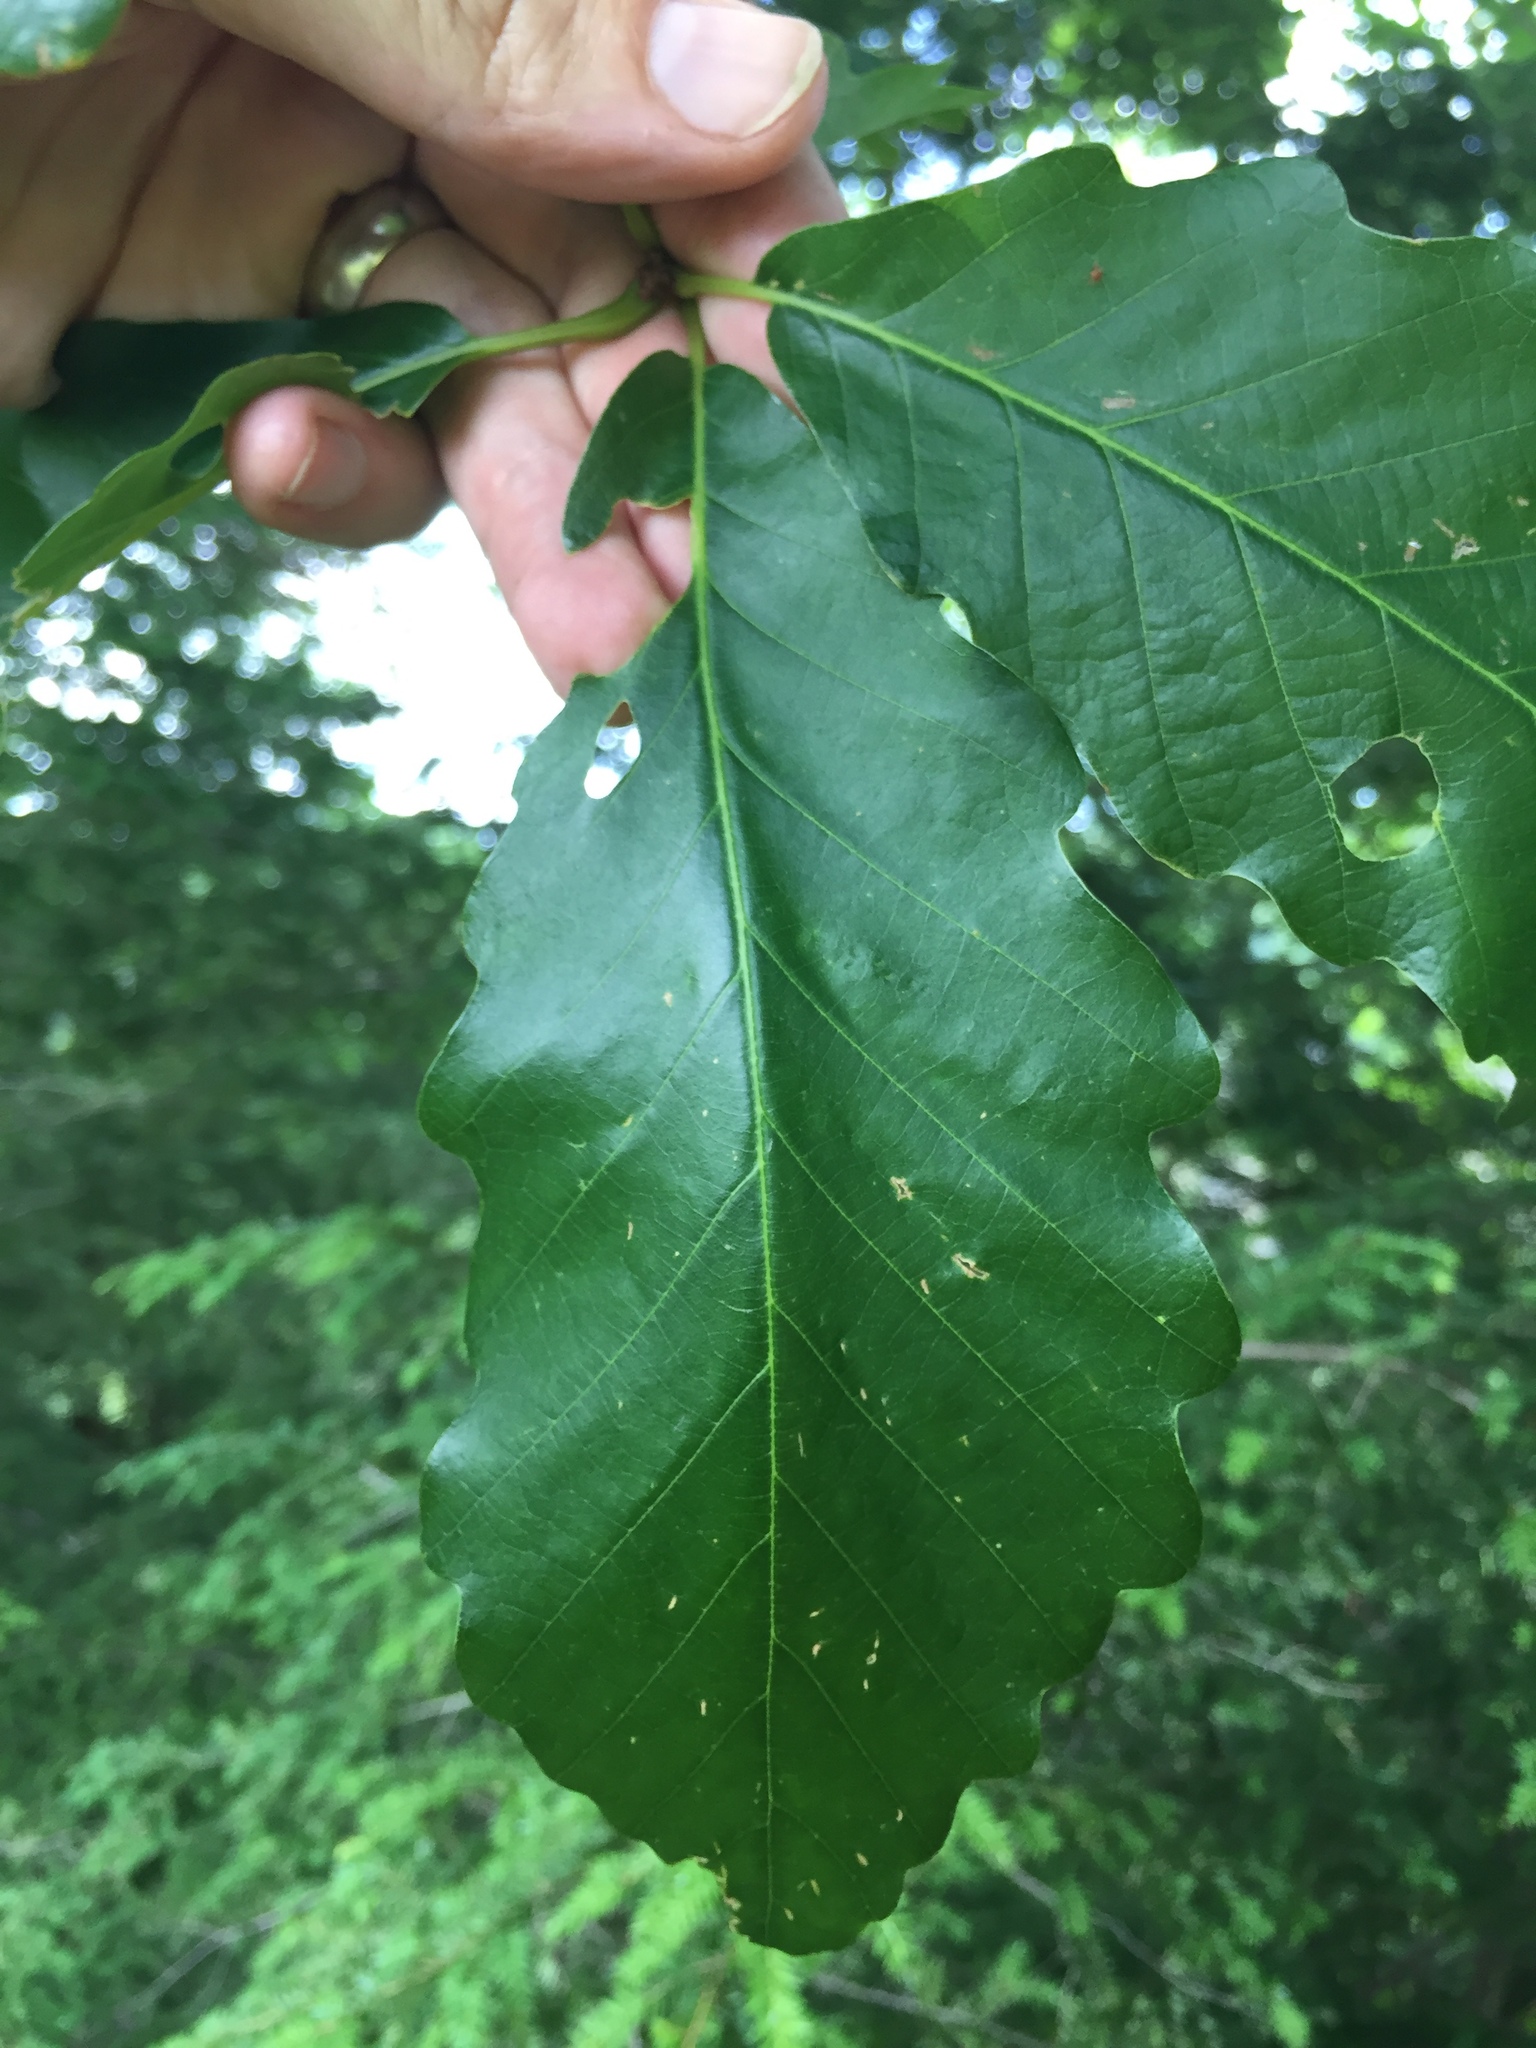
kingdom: Plantae
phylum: Tracheophyta
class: Magnoliopsida
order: Fagales
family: Fagaceae
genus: Quercus
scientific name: Quercus montana
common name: Chestnut oak
